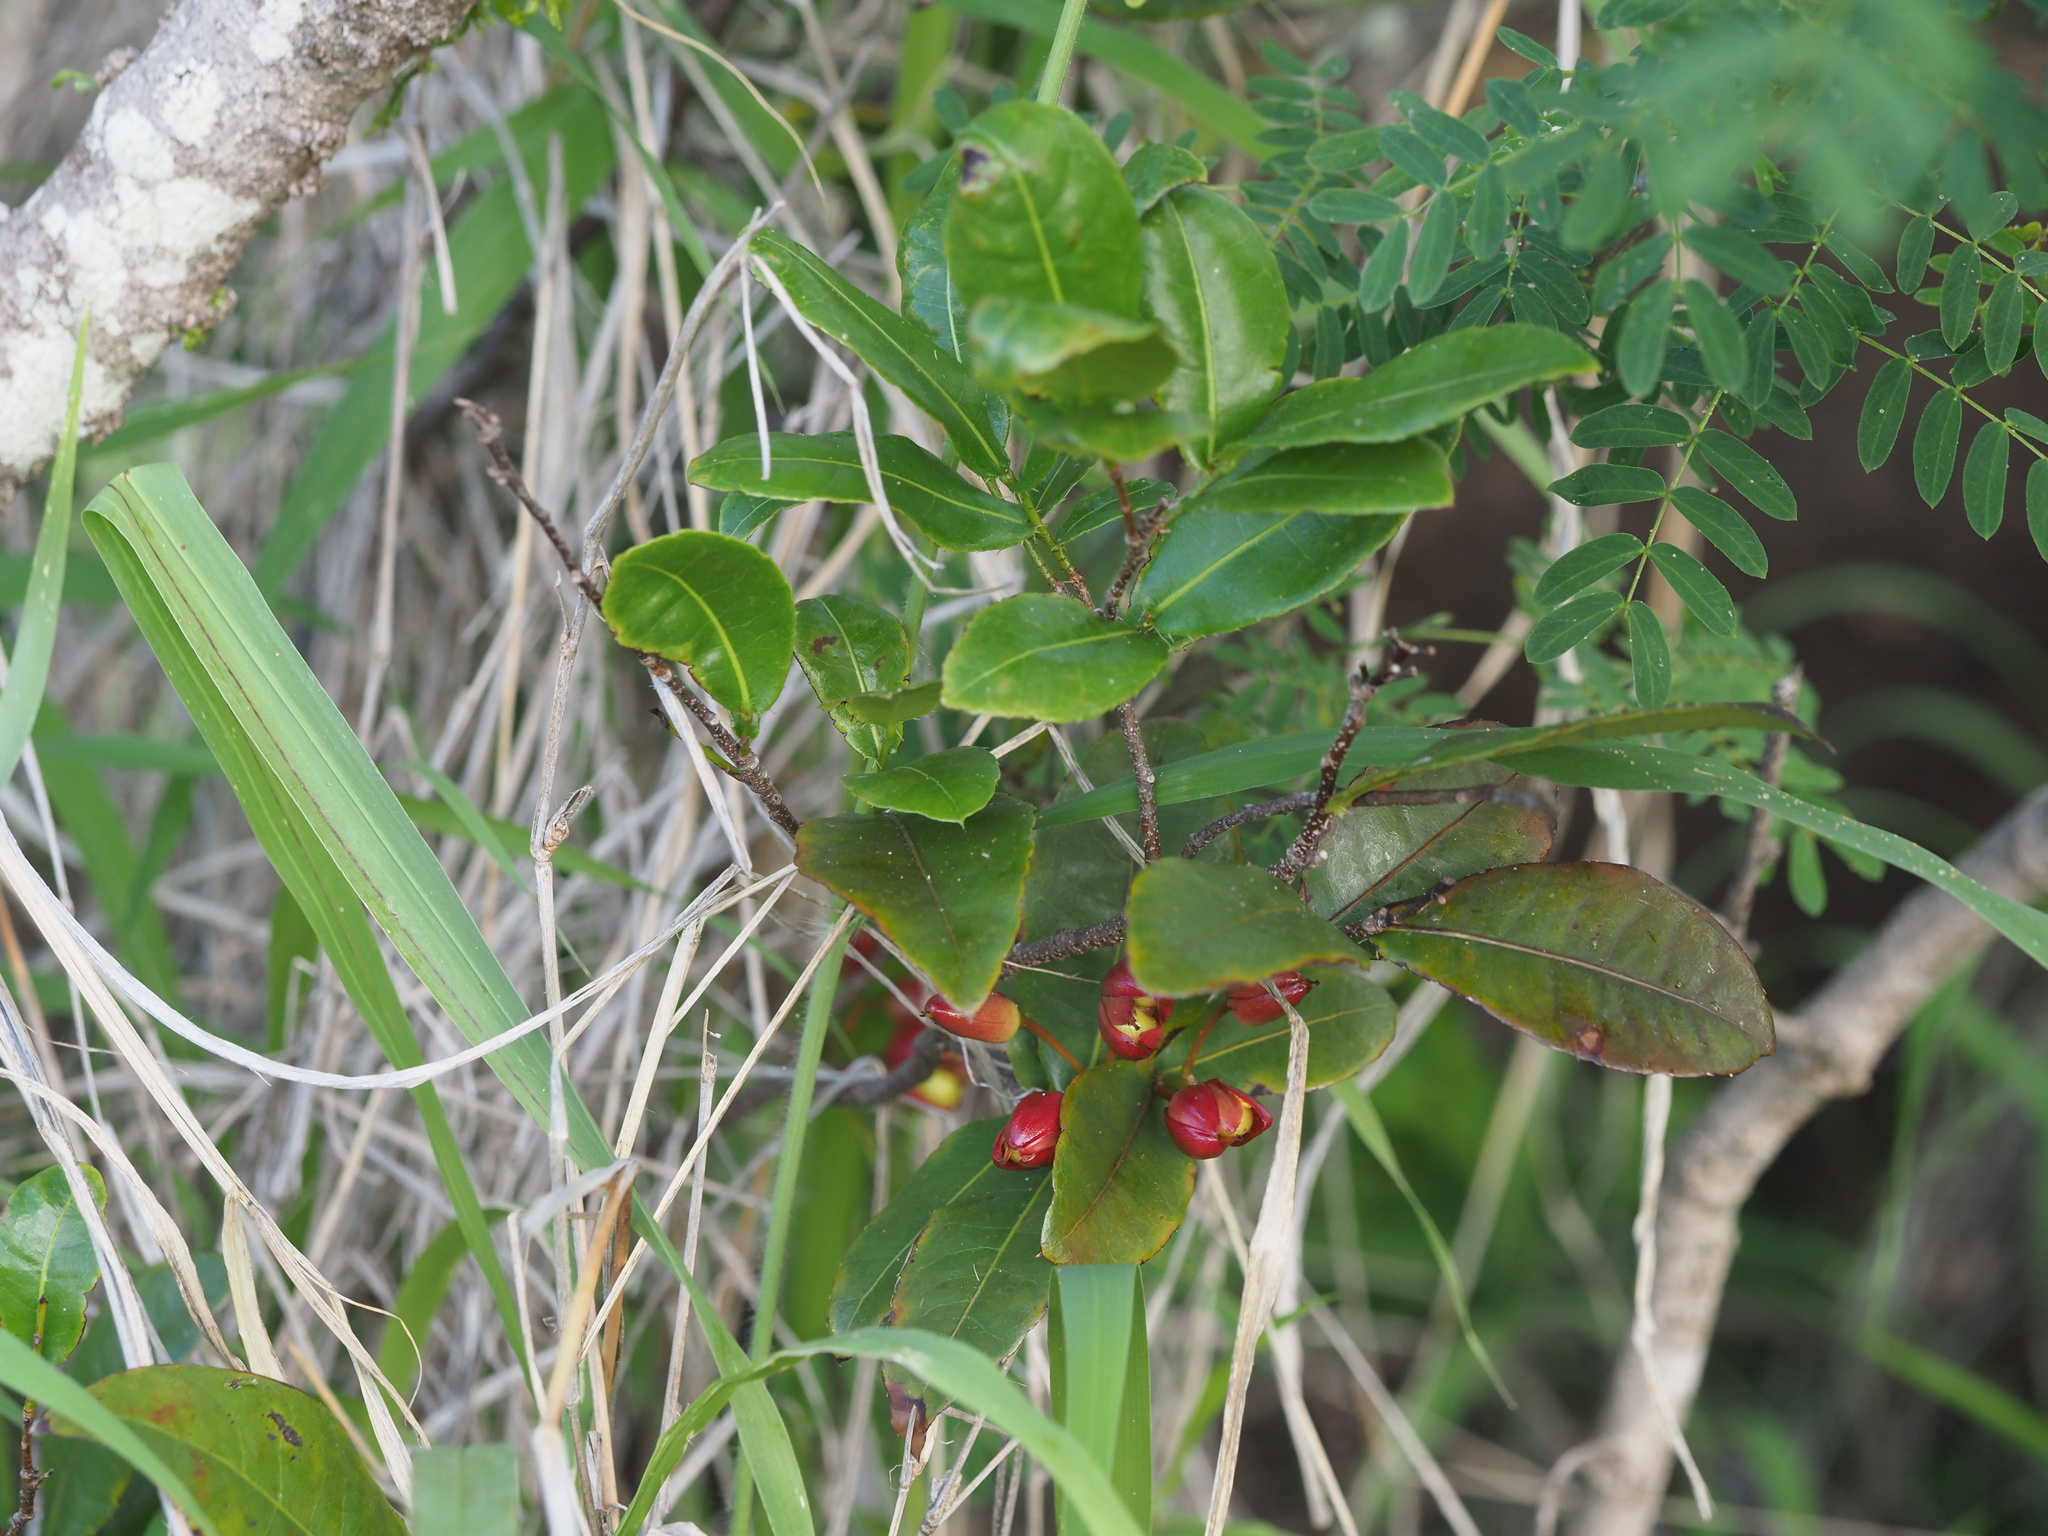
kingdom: Plantae
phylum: Tracheophyta
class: Magnoliopsida
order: Malpighiales
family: Ochnaceae
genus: Ochna
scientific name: Ochna thomasiana
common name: Thomas' bird's-eye bush
